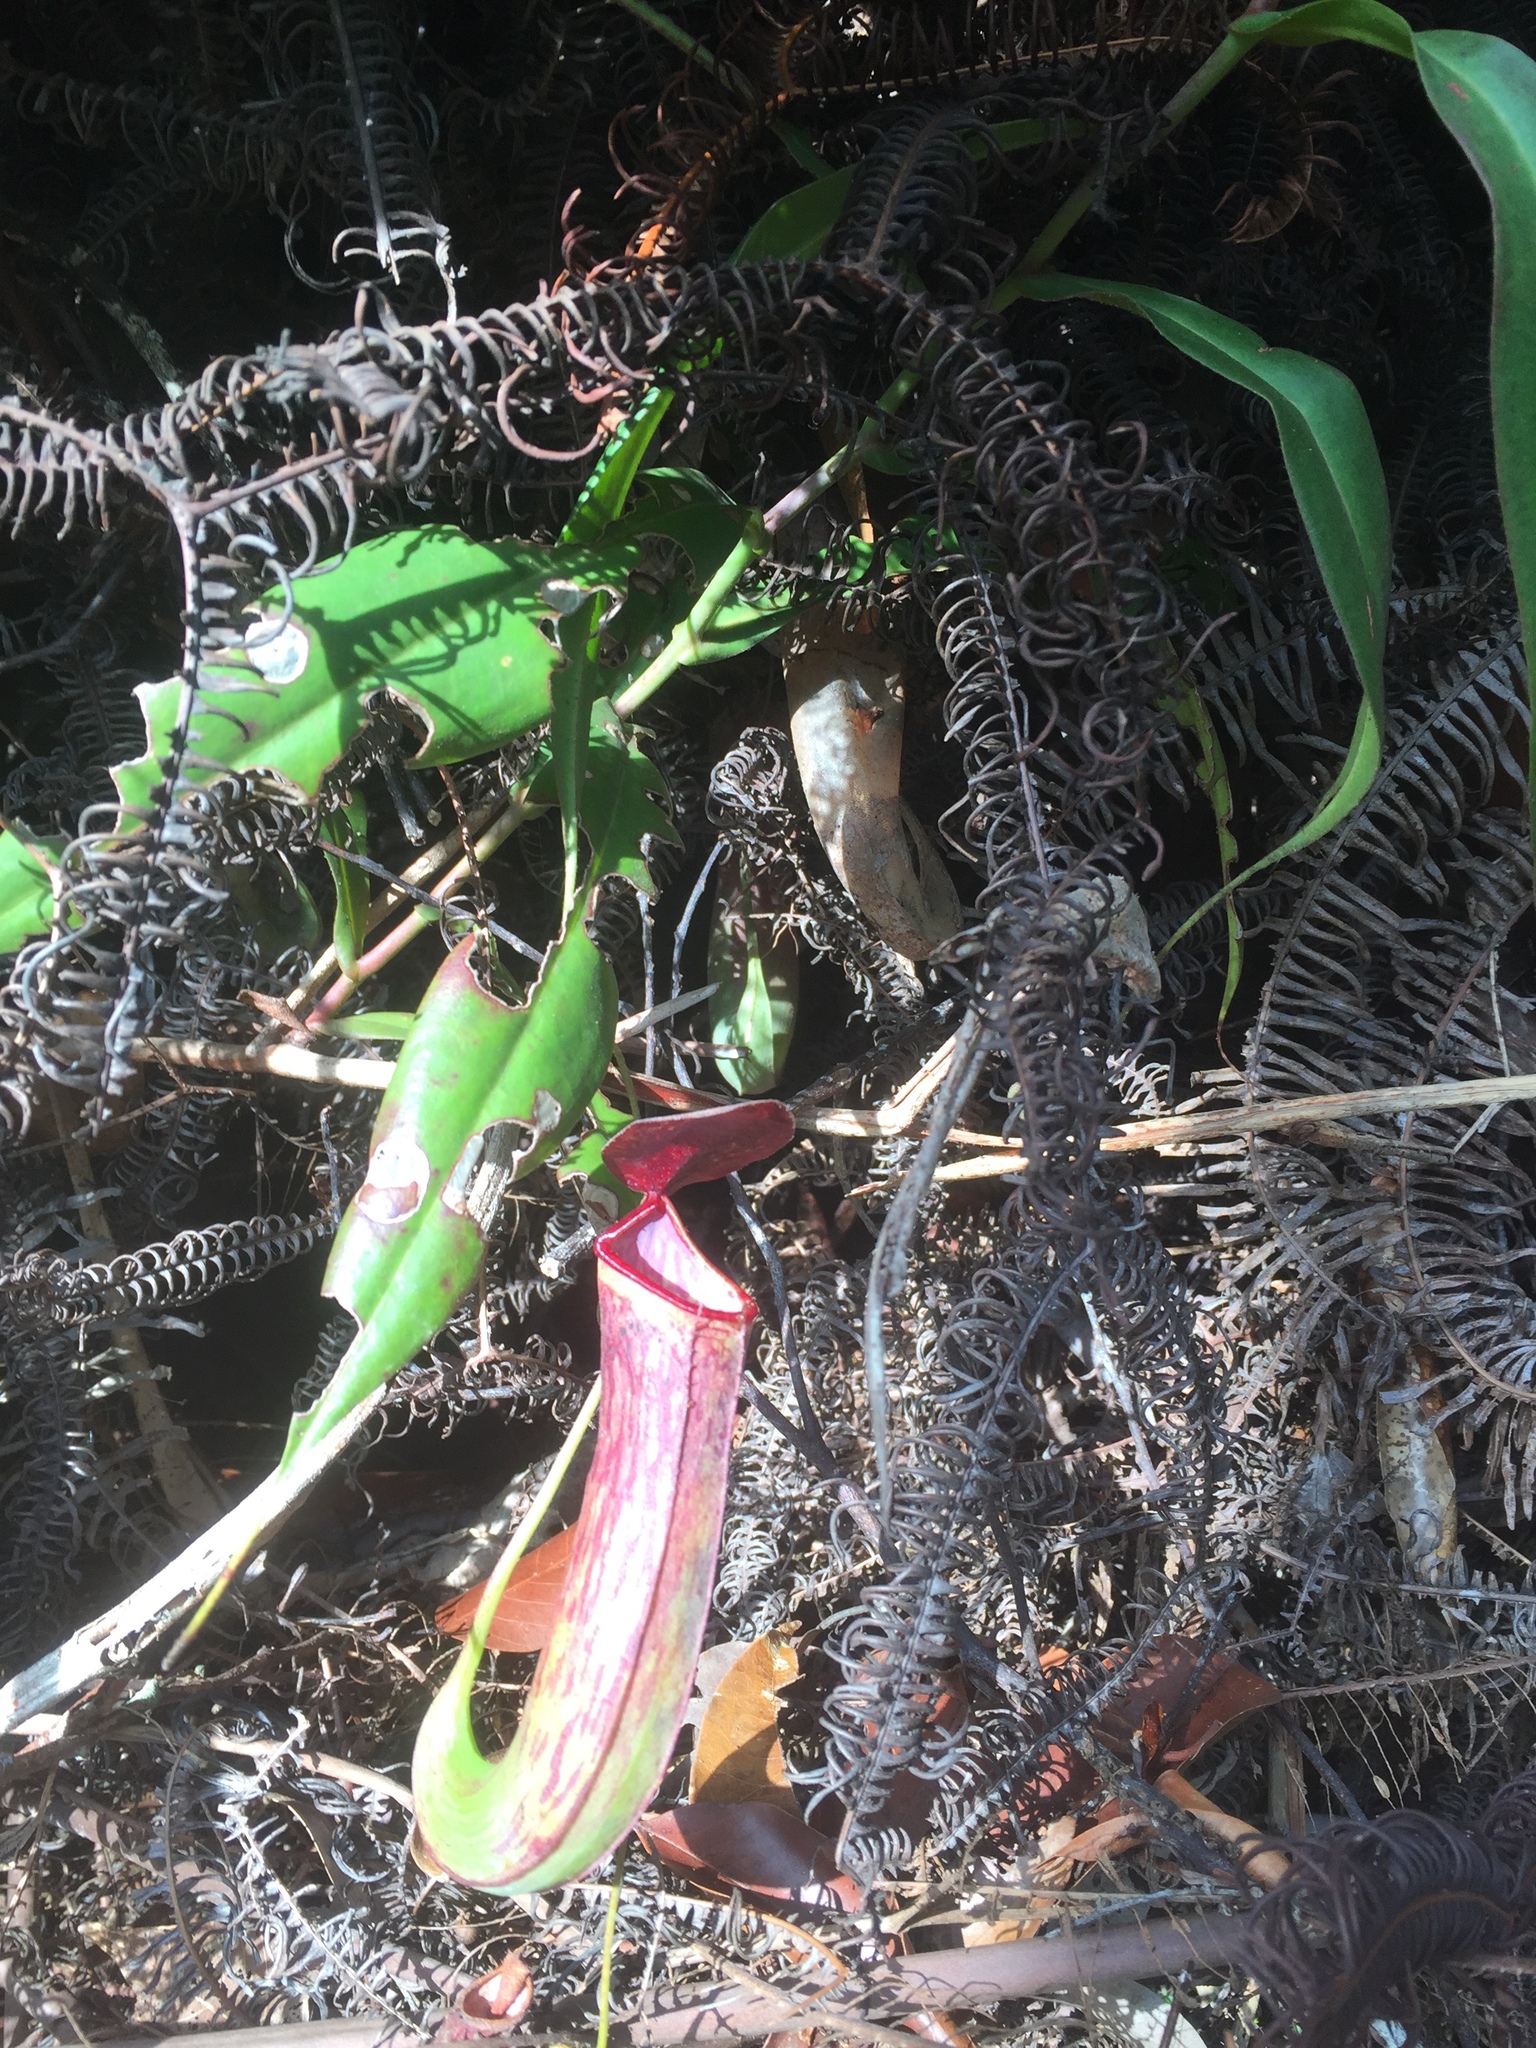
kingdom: Plantae
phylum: Tracheophyta
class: Magnoliopsida
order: Caryophyllales
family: Nepenthaceae
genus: Nepenthes
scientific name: Nepenthes albomarginata
